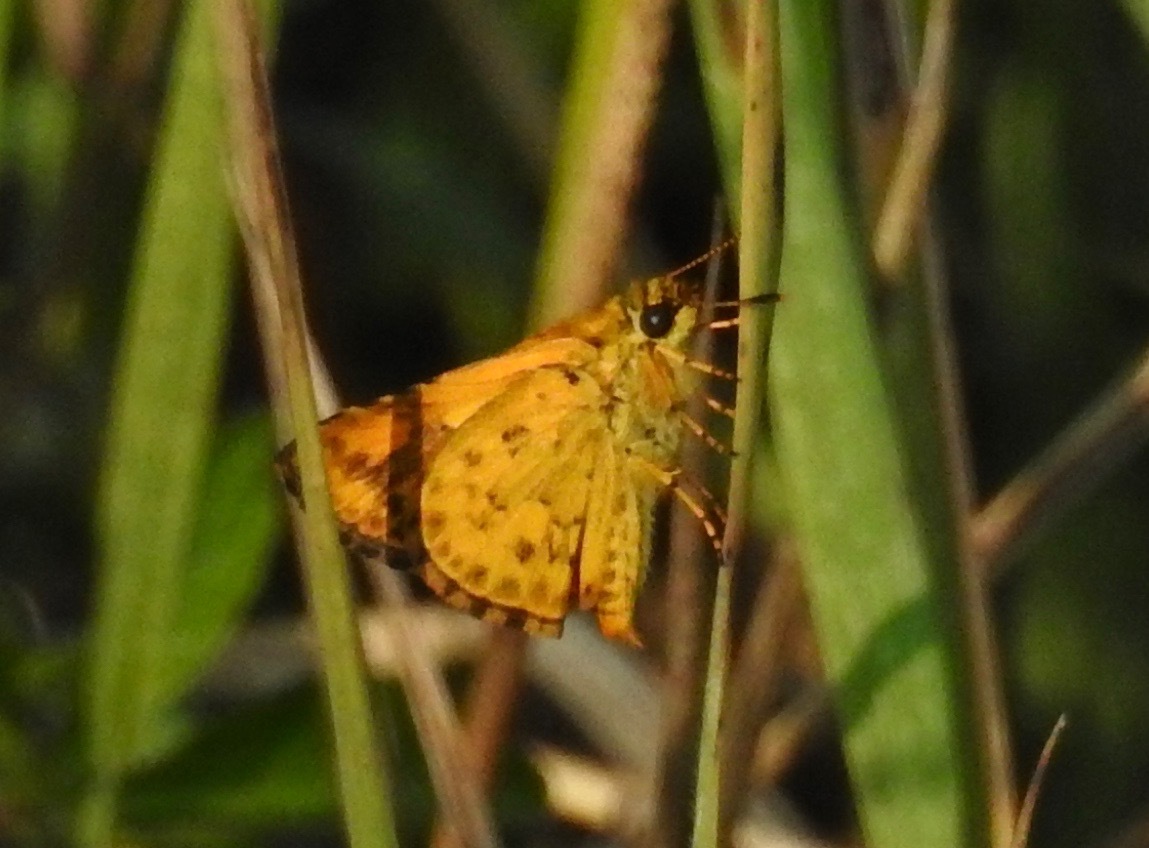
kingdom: Animalia
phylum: Arthropoda
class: Insecta
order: Lepidoptera
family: Hesperiidae
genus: Ampittia
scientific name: Ampittia dioscorides
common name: Common bush hopper
